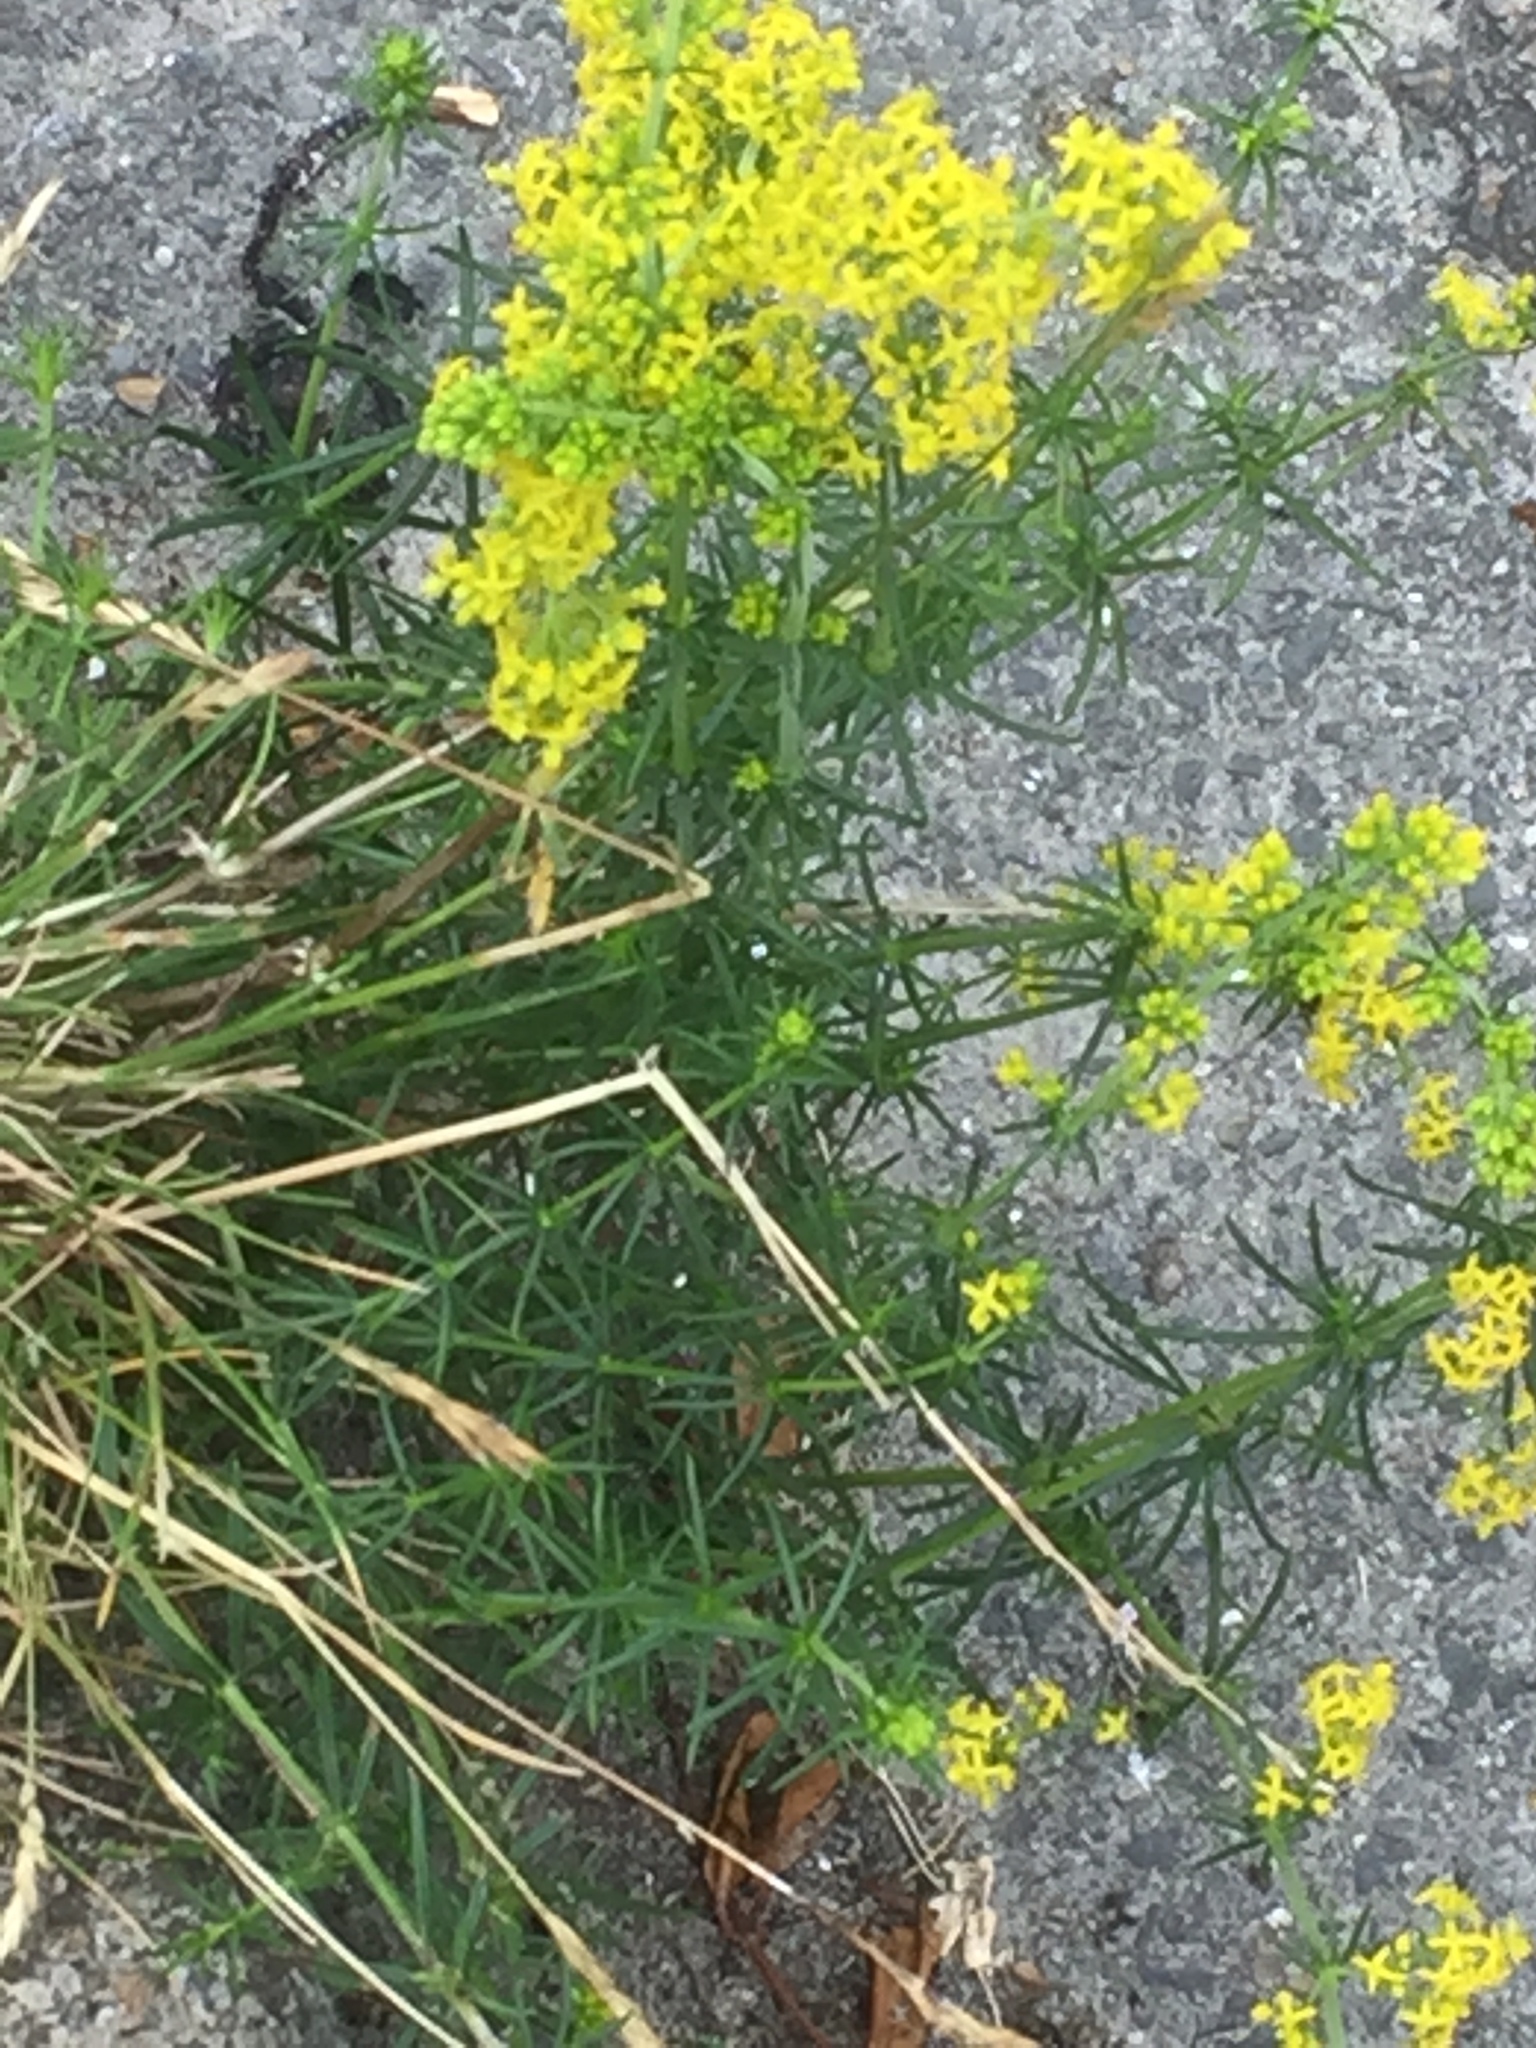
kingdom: Plantae
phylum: Tracheophyta
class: Magnoliopsida
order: Gentianales
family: Rubiaceae
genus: Galium
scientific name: Galium verum
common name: Lady's bedstraw
